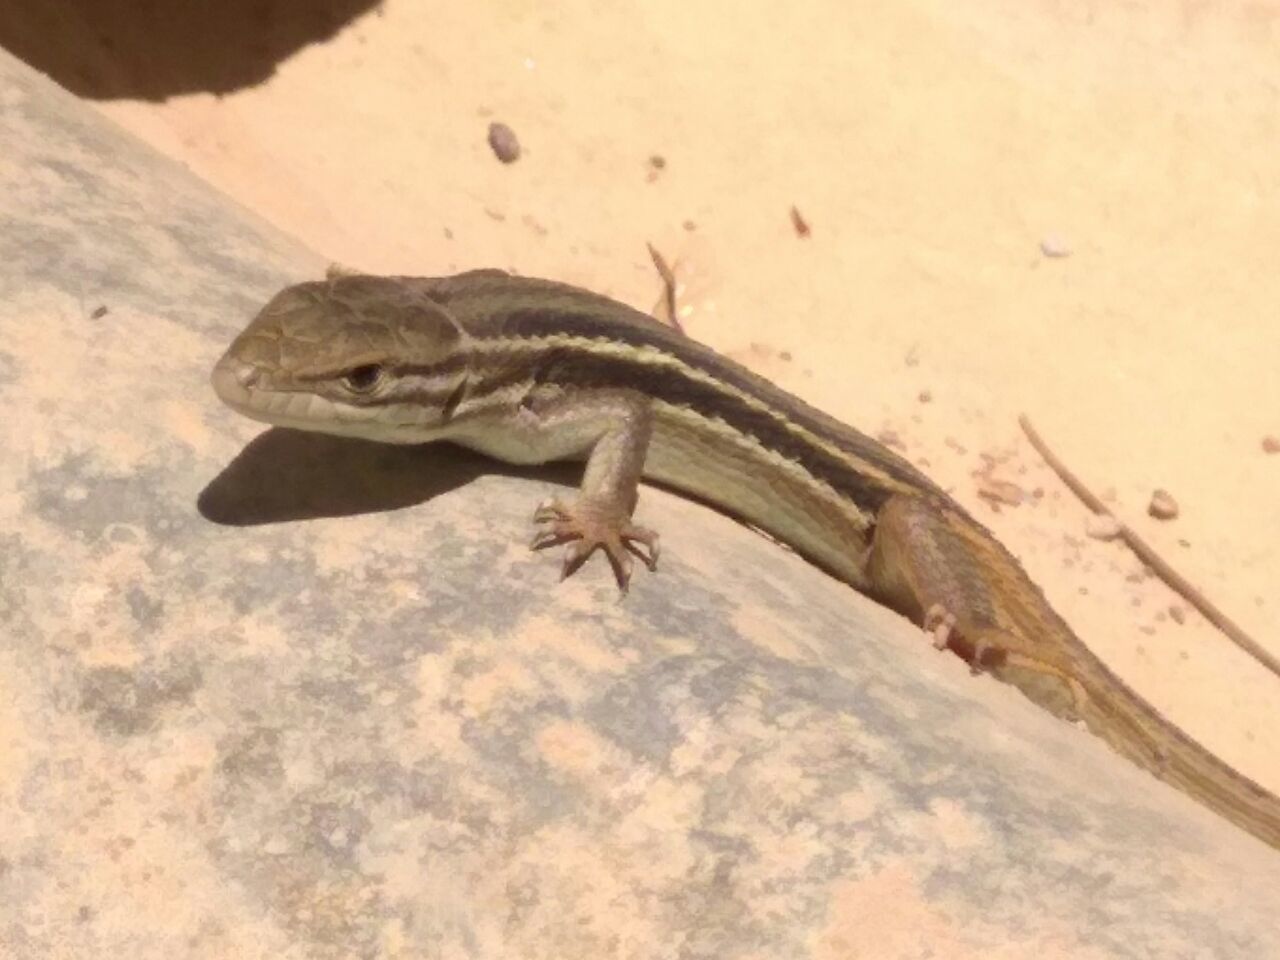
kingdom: Animalia
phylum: Chordata
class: Squamata
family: Lacertidae
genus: Psammodromus
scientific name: Psammodromus algirus
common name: Algerian psammodromus
